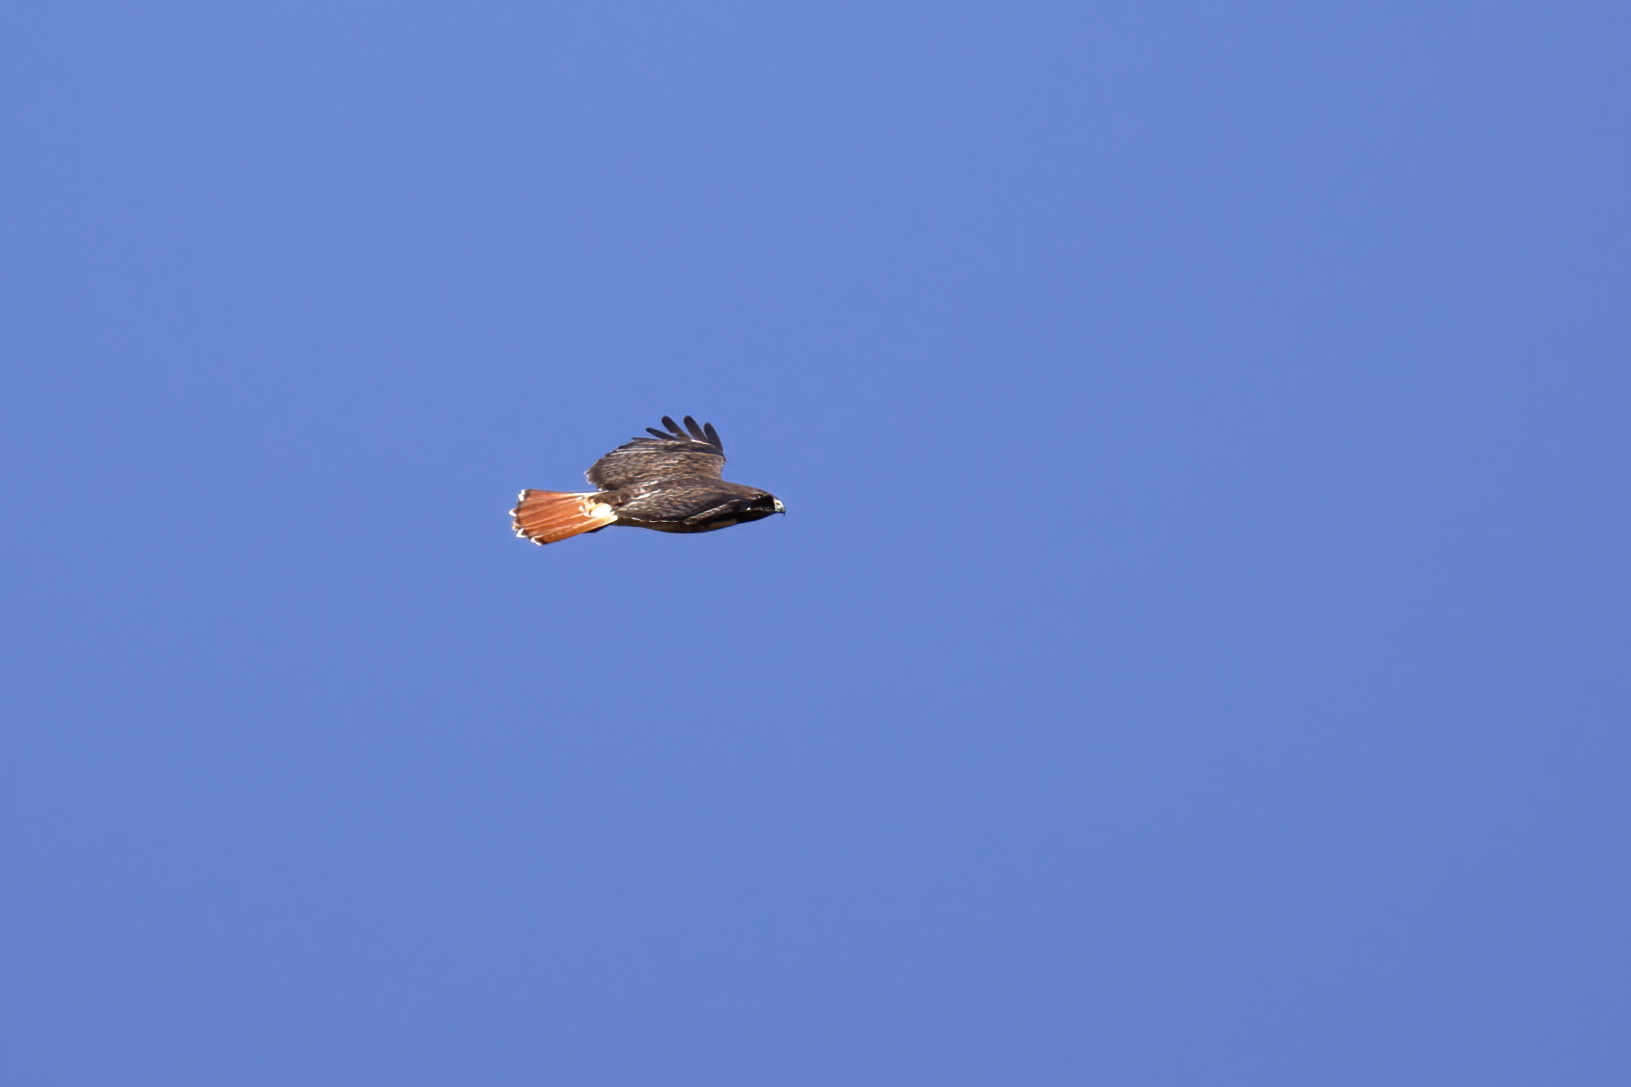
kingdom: Animalia
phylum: Chordata
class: Aves
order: Accipitriformes
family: Accipitridae
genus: Buteo
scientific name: Buteo jamaicensis
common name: Red-tailed hawk
